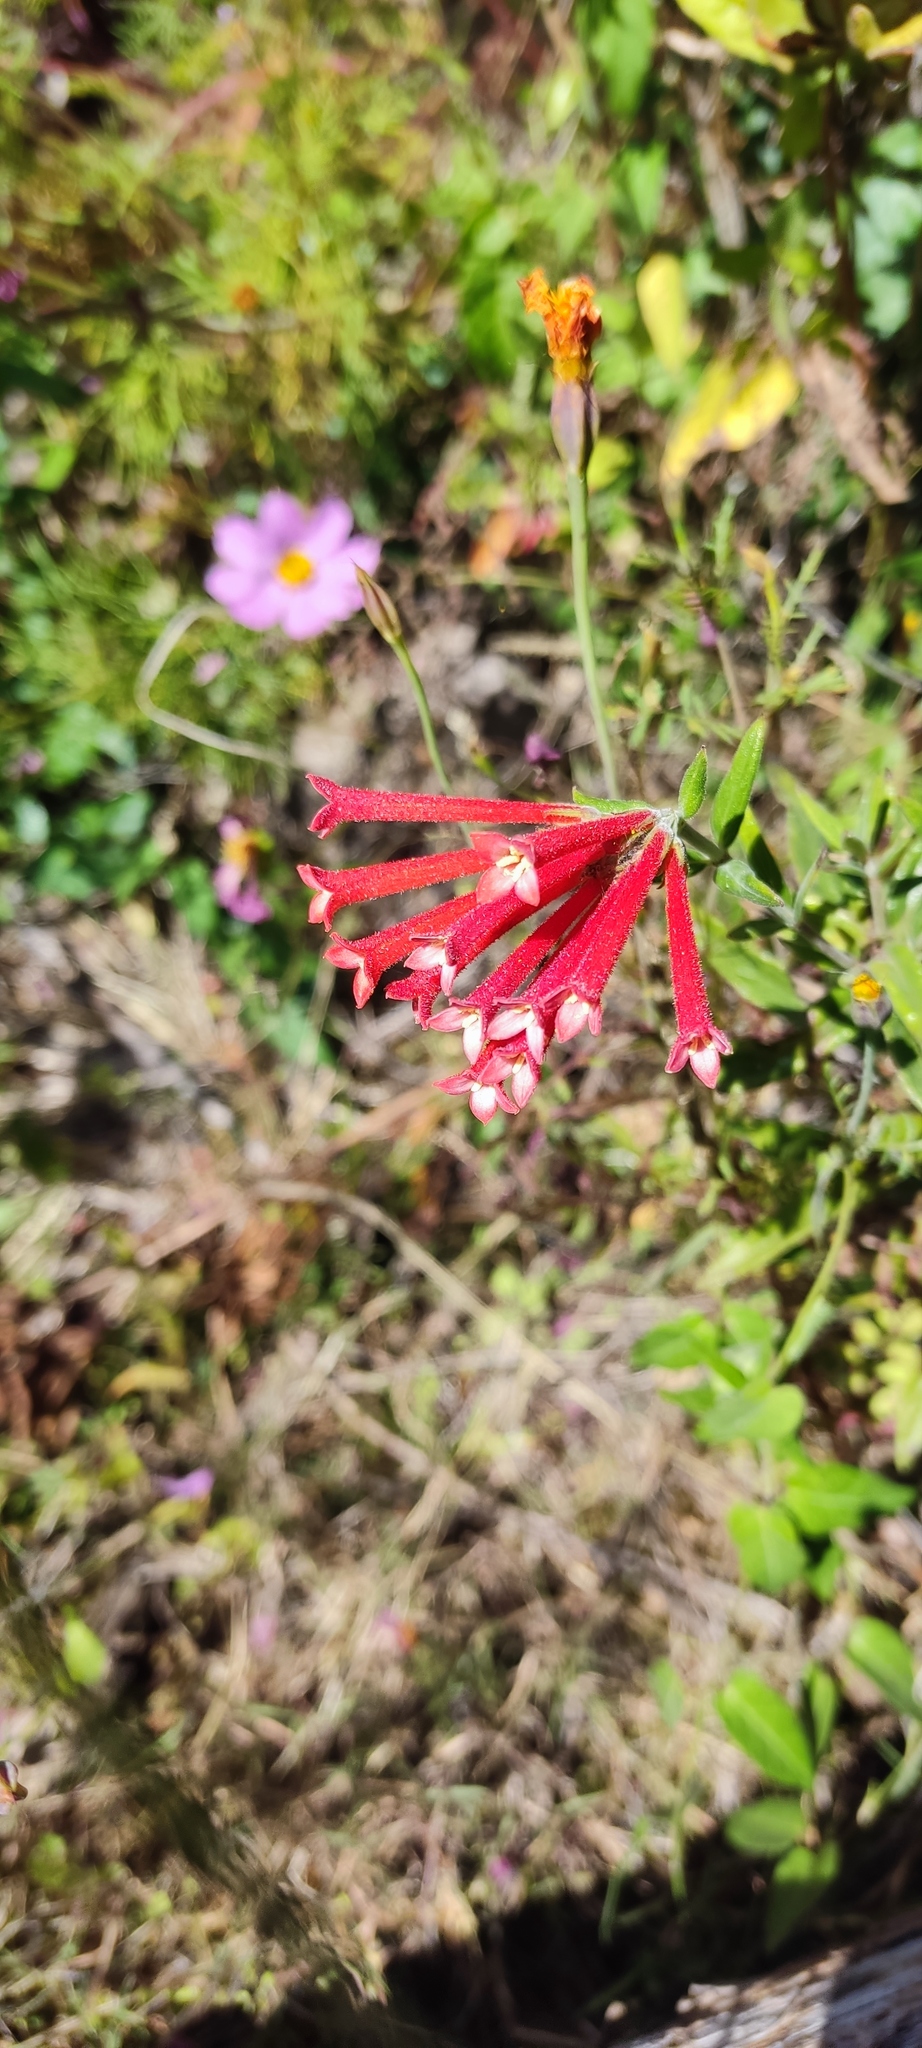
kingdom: Plantae
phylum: Tracheophyta
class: Magnoliopsida
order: Gentianales
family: Rubiaceae
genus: Bouvardia
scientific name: Bouvardia ternifolia
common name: Scarlet bouvardia
